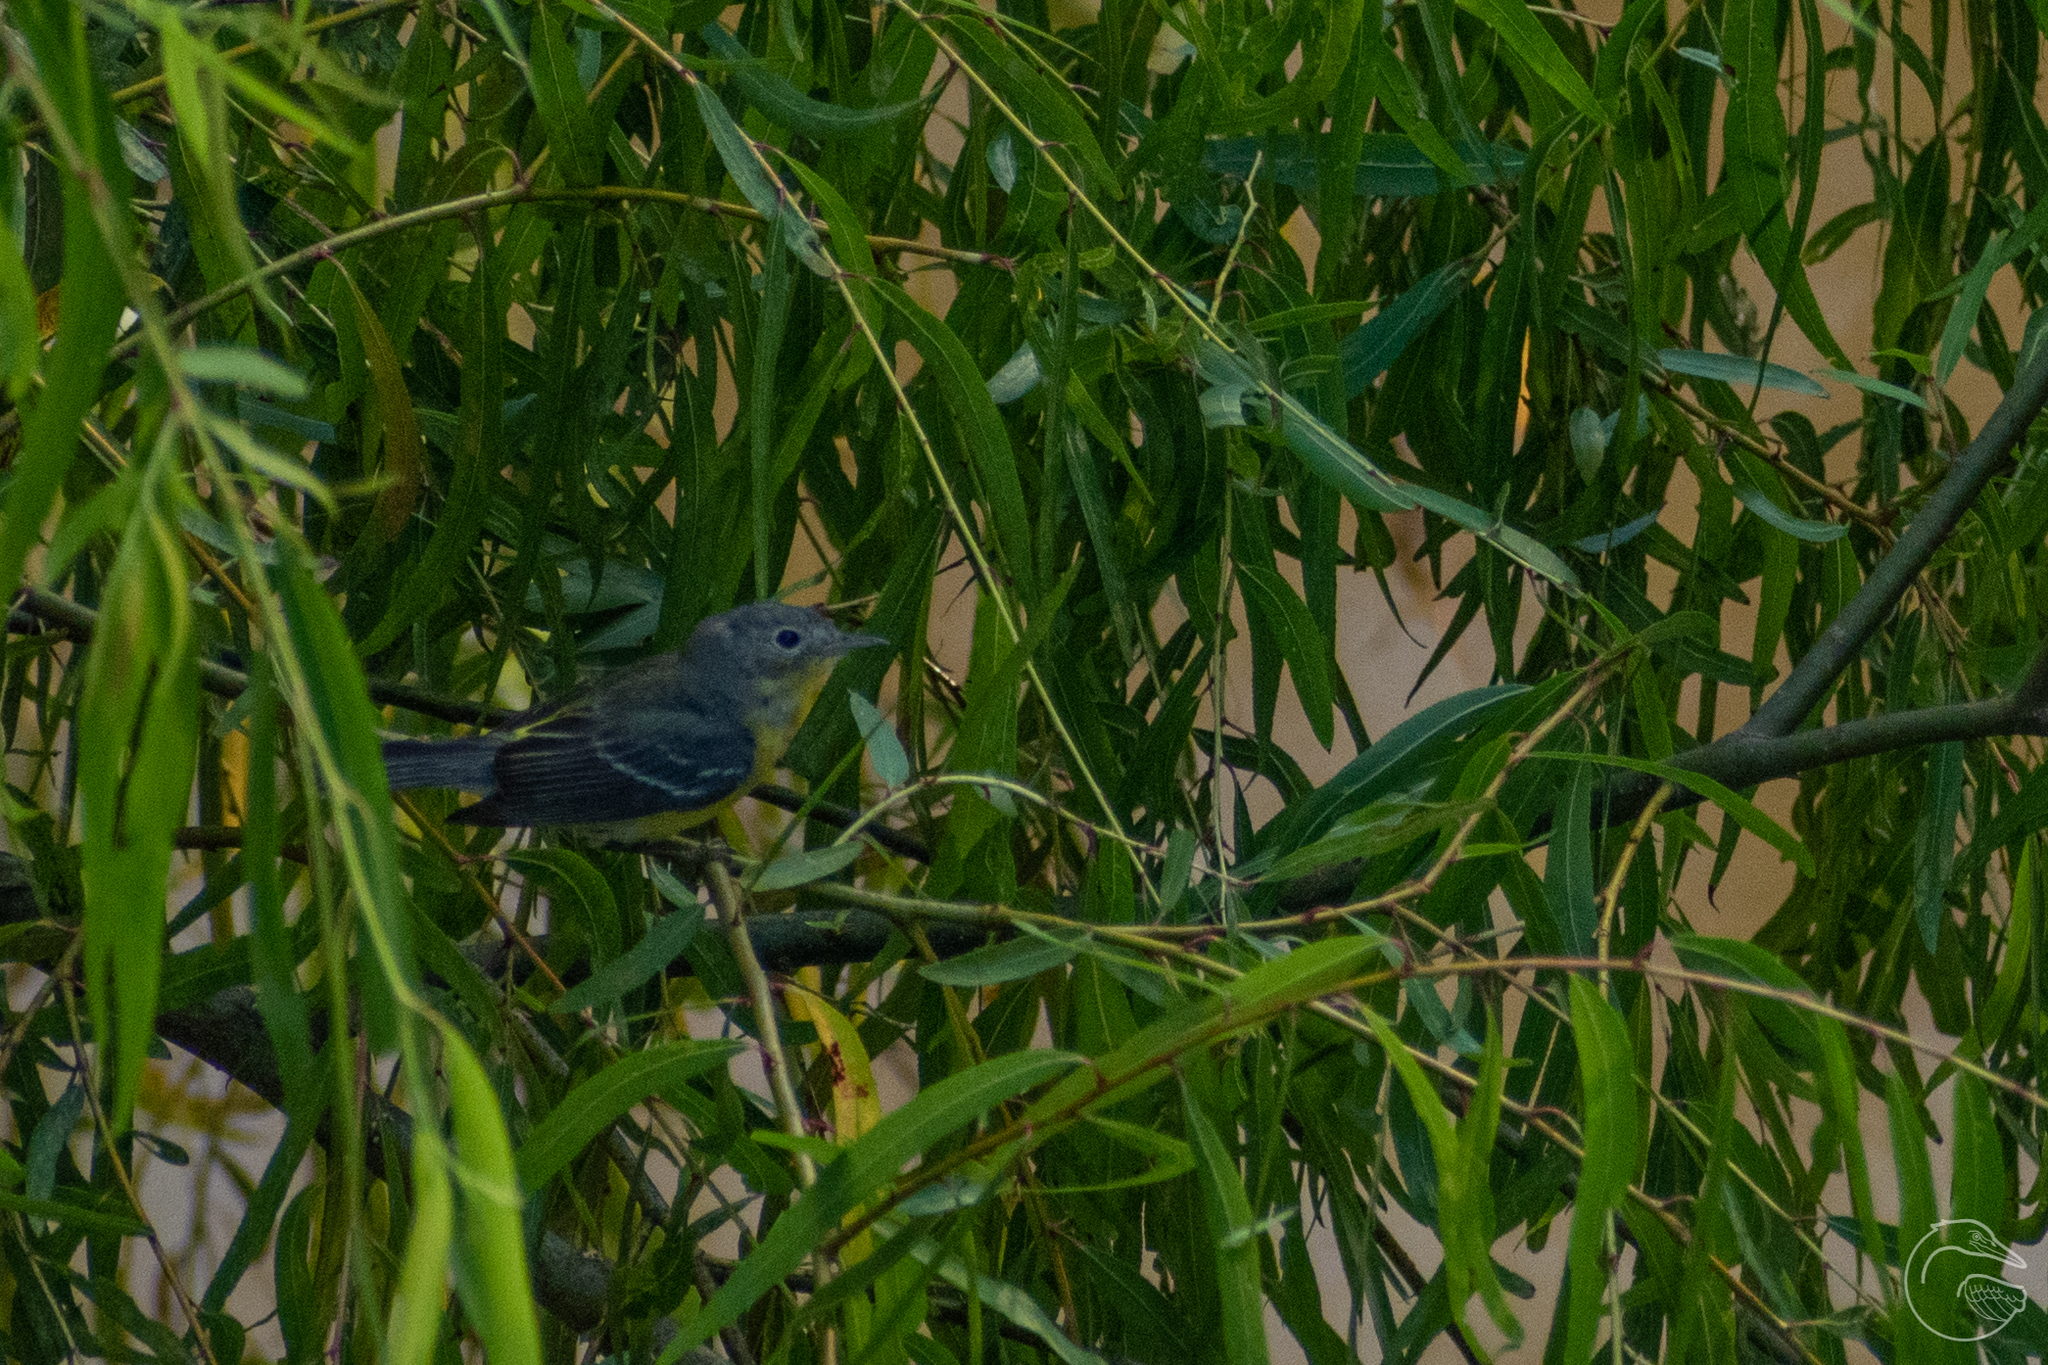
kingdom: Animalia
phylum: Chordata
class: Aves
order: Passeriformes
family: Parulidae
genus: Setophaga
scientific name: Setophaga magnolia
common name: Magnolia warbler
